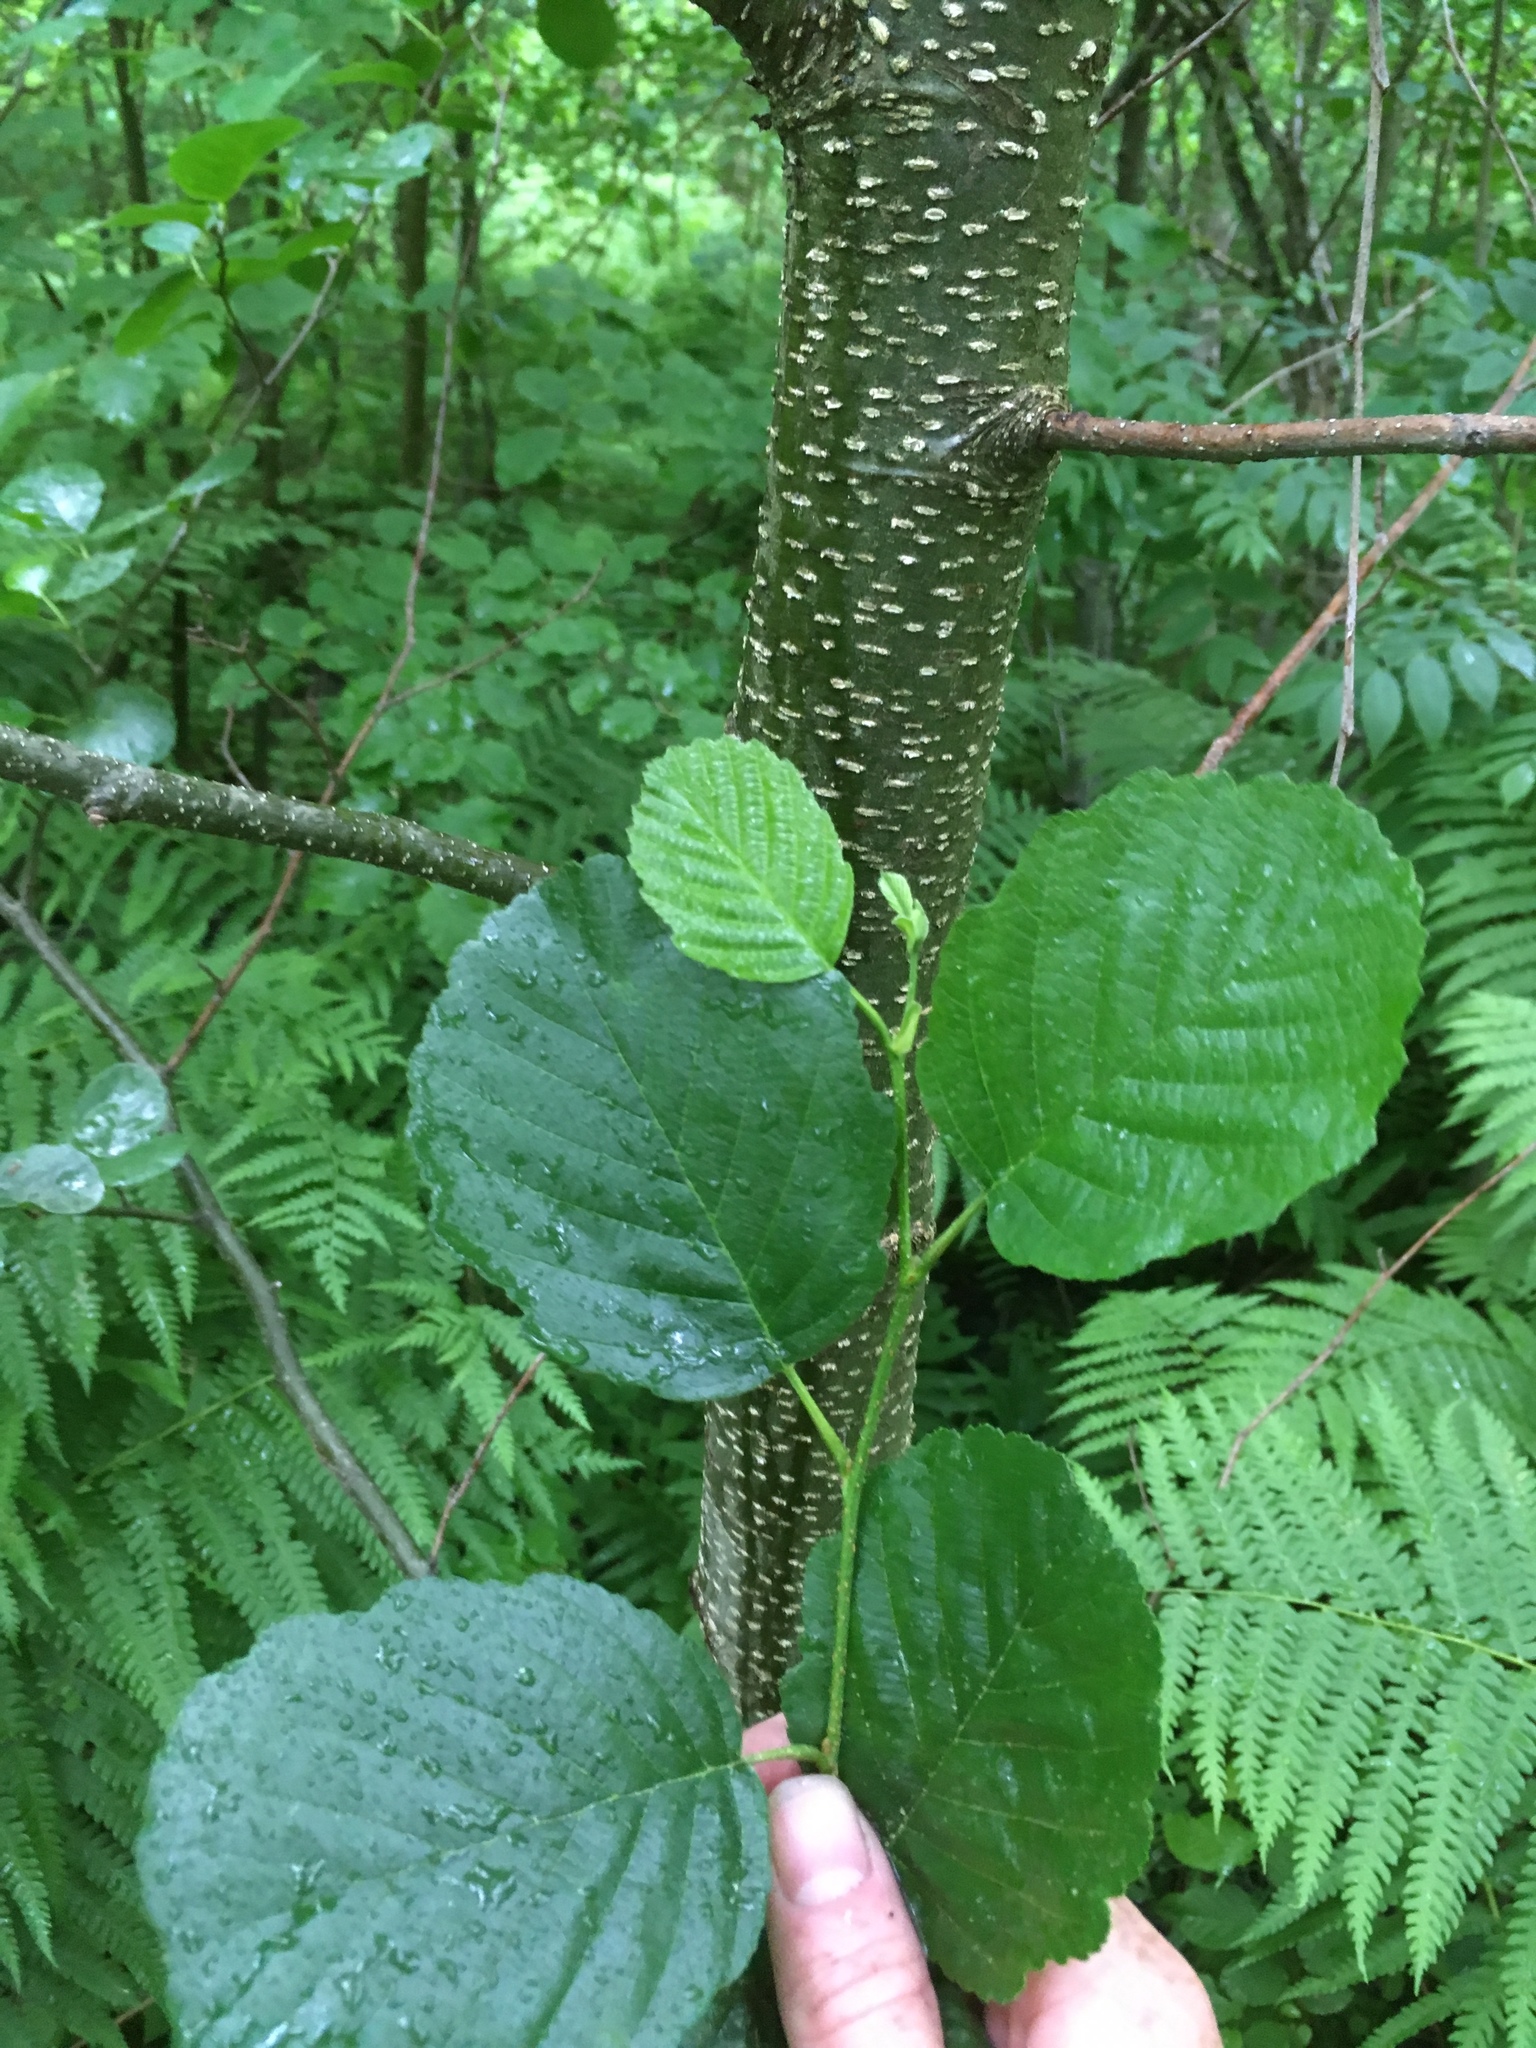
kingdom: Plantae
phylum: Tracheophyta
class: Magnoliopsida
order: Fagales
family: Betulaceae
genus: Alnus
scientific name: Alnus glutinosa
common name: Black alder
